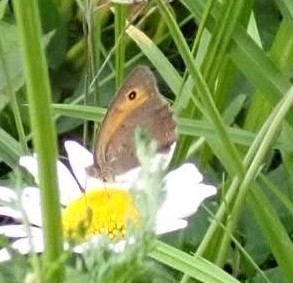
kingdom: Animalia
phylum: Arthropoda
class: Insecta
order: Lepidoptera
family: Nymphalidae
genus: Hyponephele
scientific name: Hyponephele lycaon
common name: Dusky meadow brown
